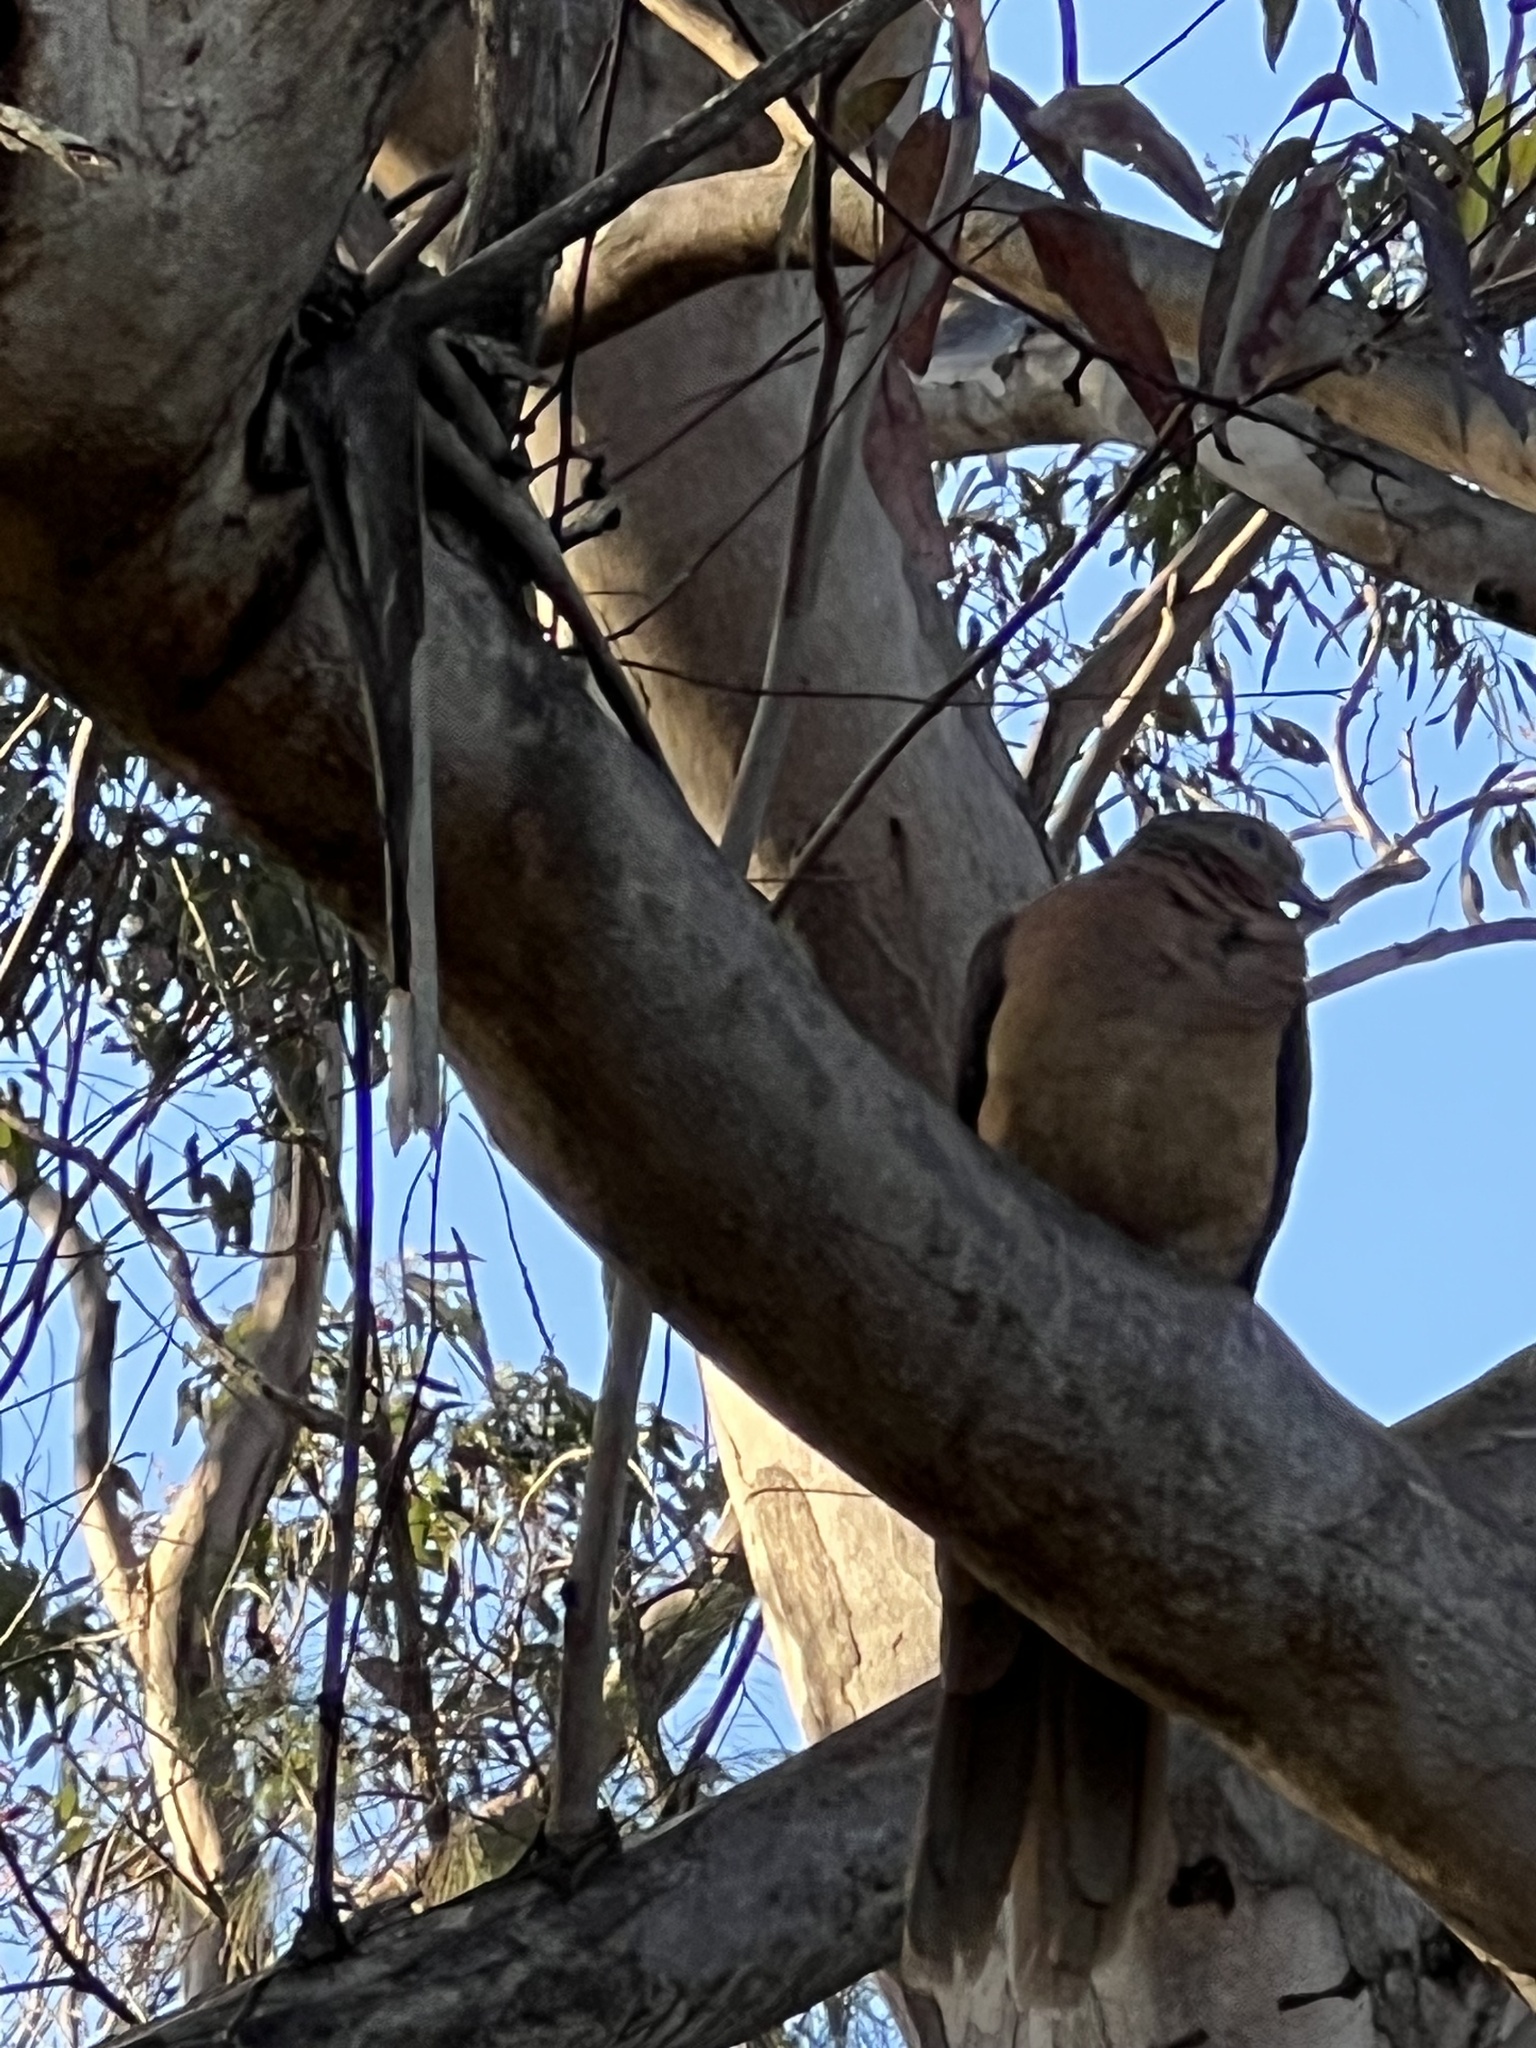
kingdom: Animalia
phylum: Chordata
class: Aves
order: Columbiformes
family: Columbidae
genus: Macropygia
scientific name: Macropygia phasianella
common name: Brown cuckoo-dove
